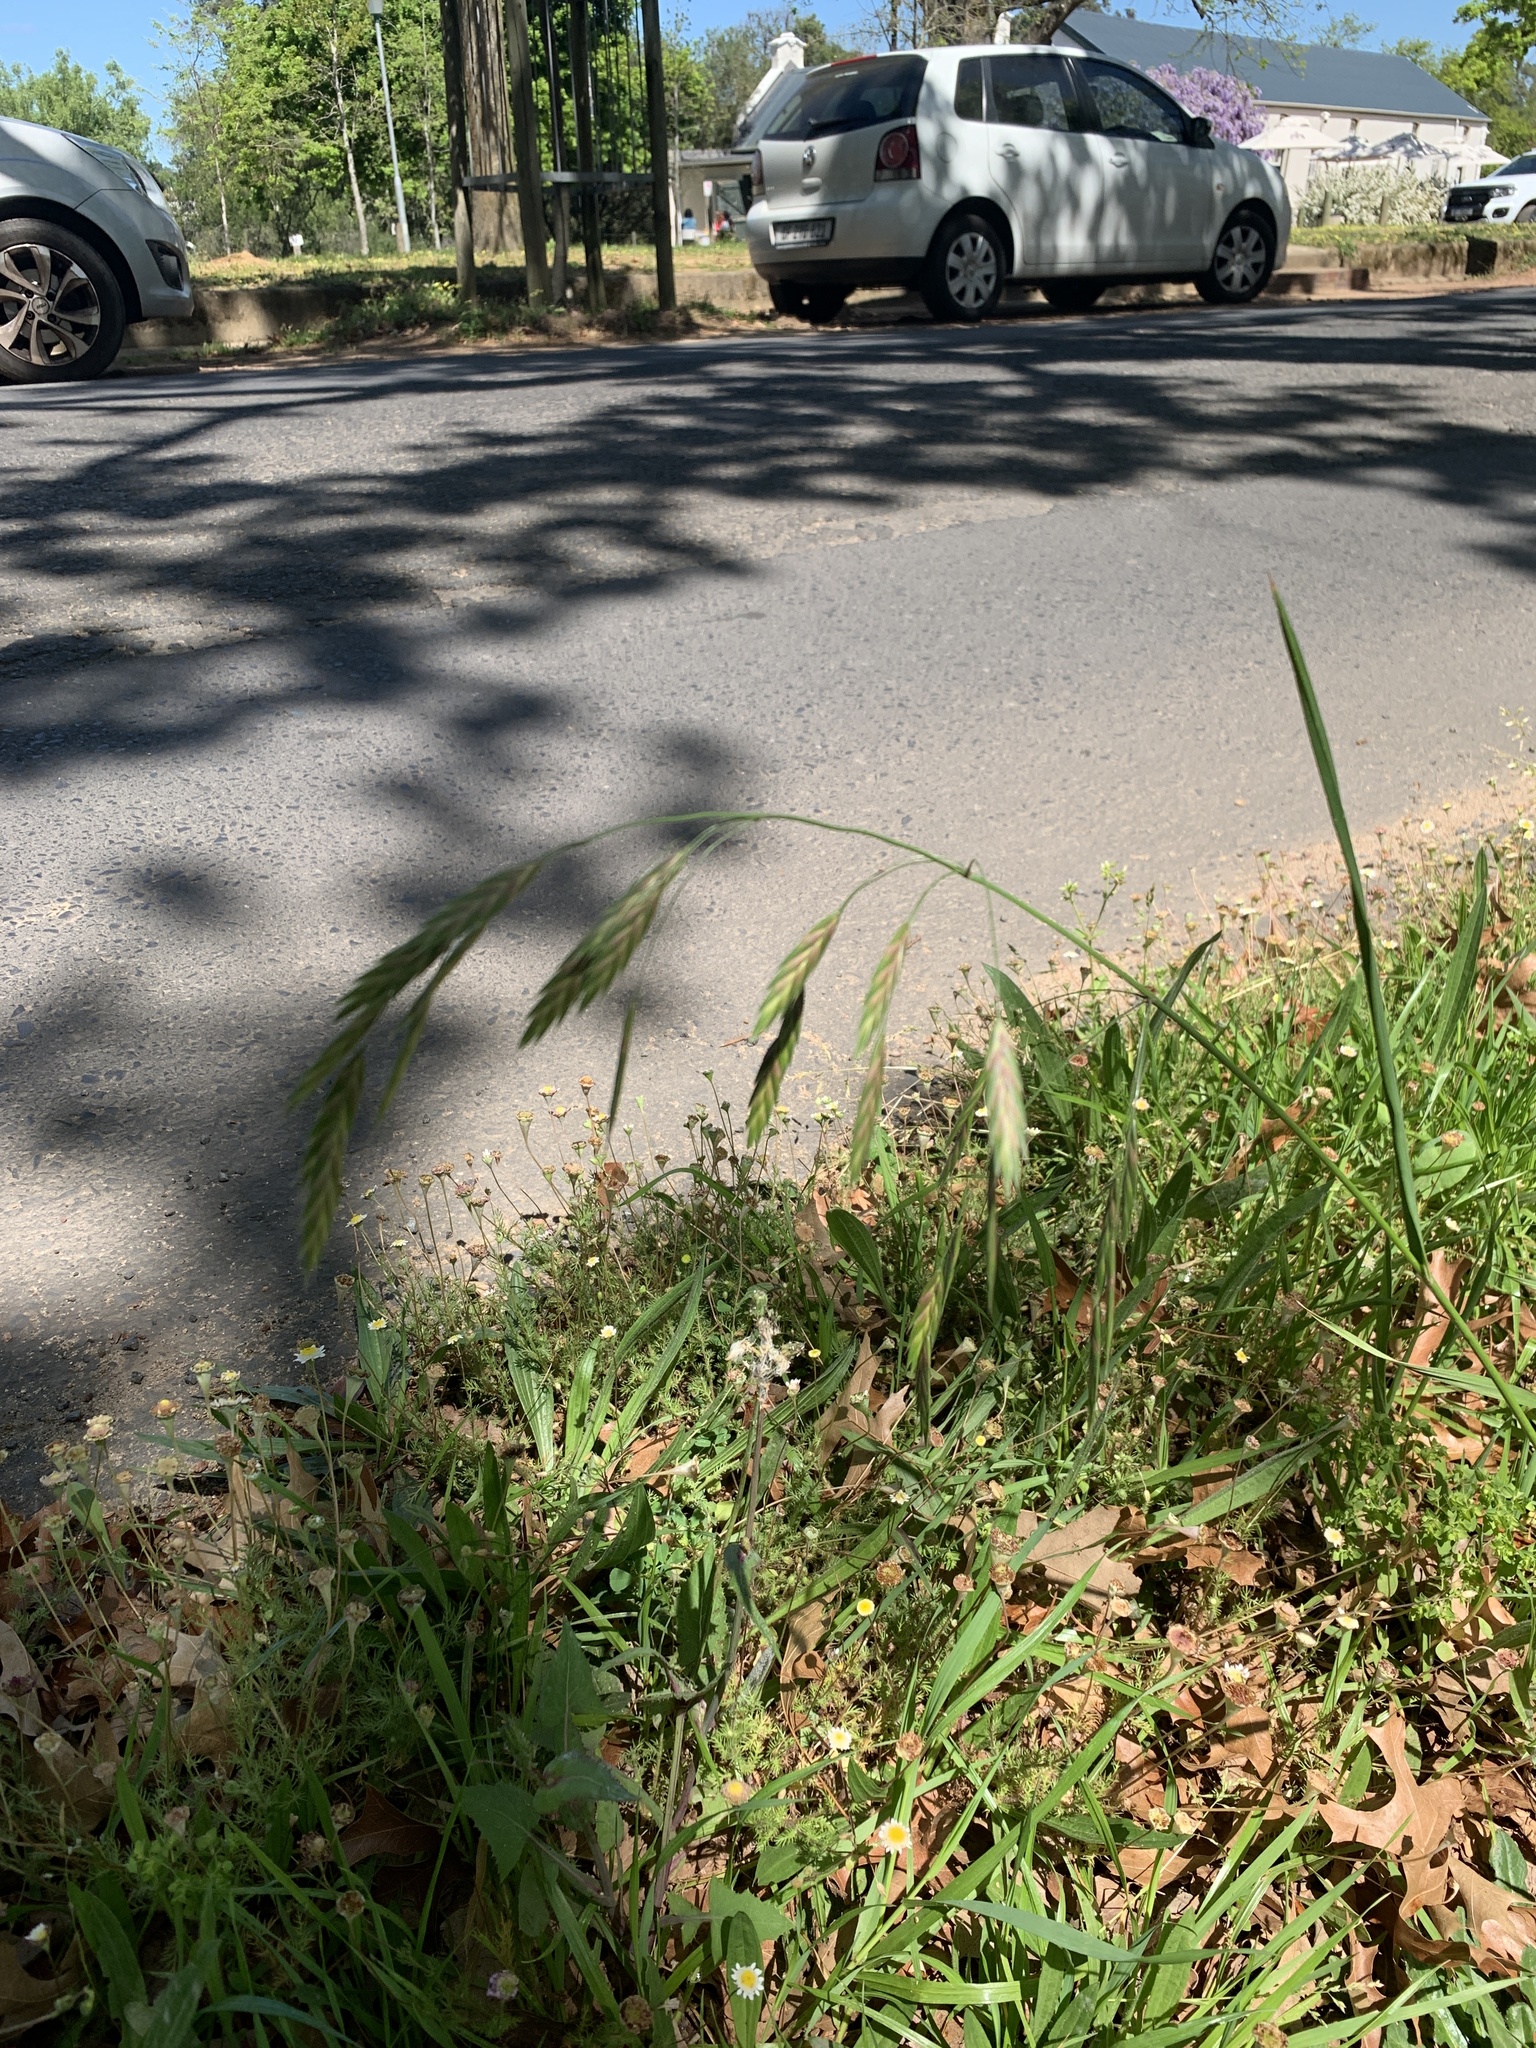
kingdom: Plantae
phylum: Tracheophyta
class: Liliopsida
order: Poales
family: Poaceae
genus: Bromus
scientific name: Bromus catharticus
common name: Rescuegrass
